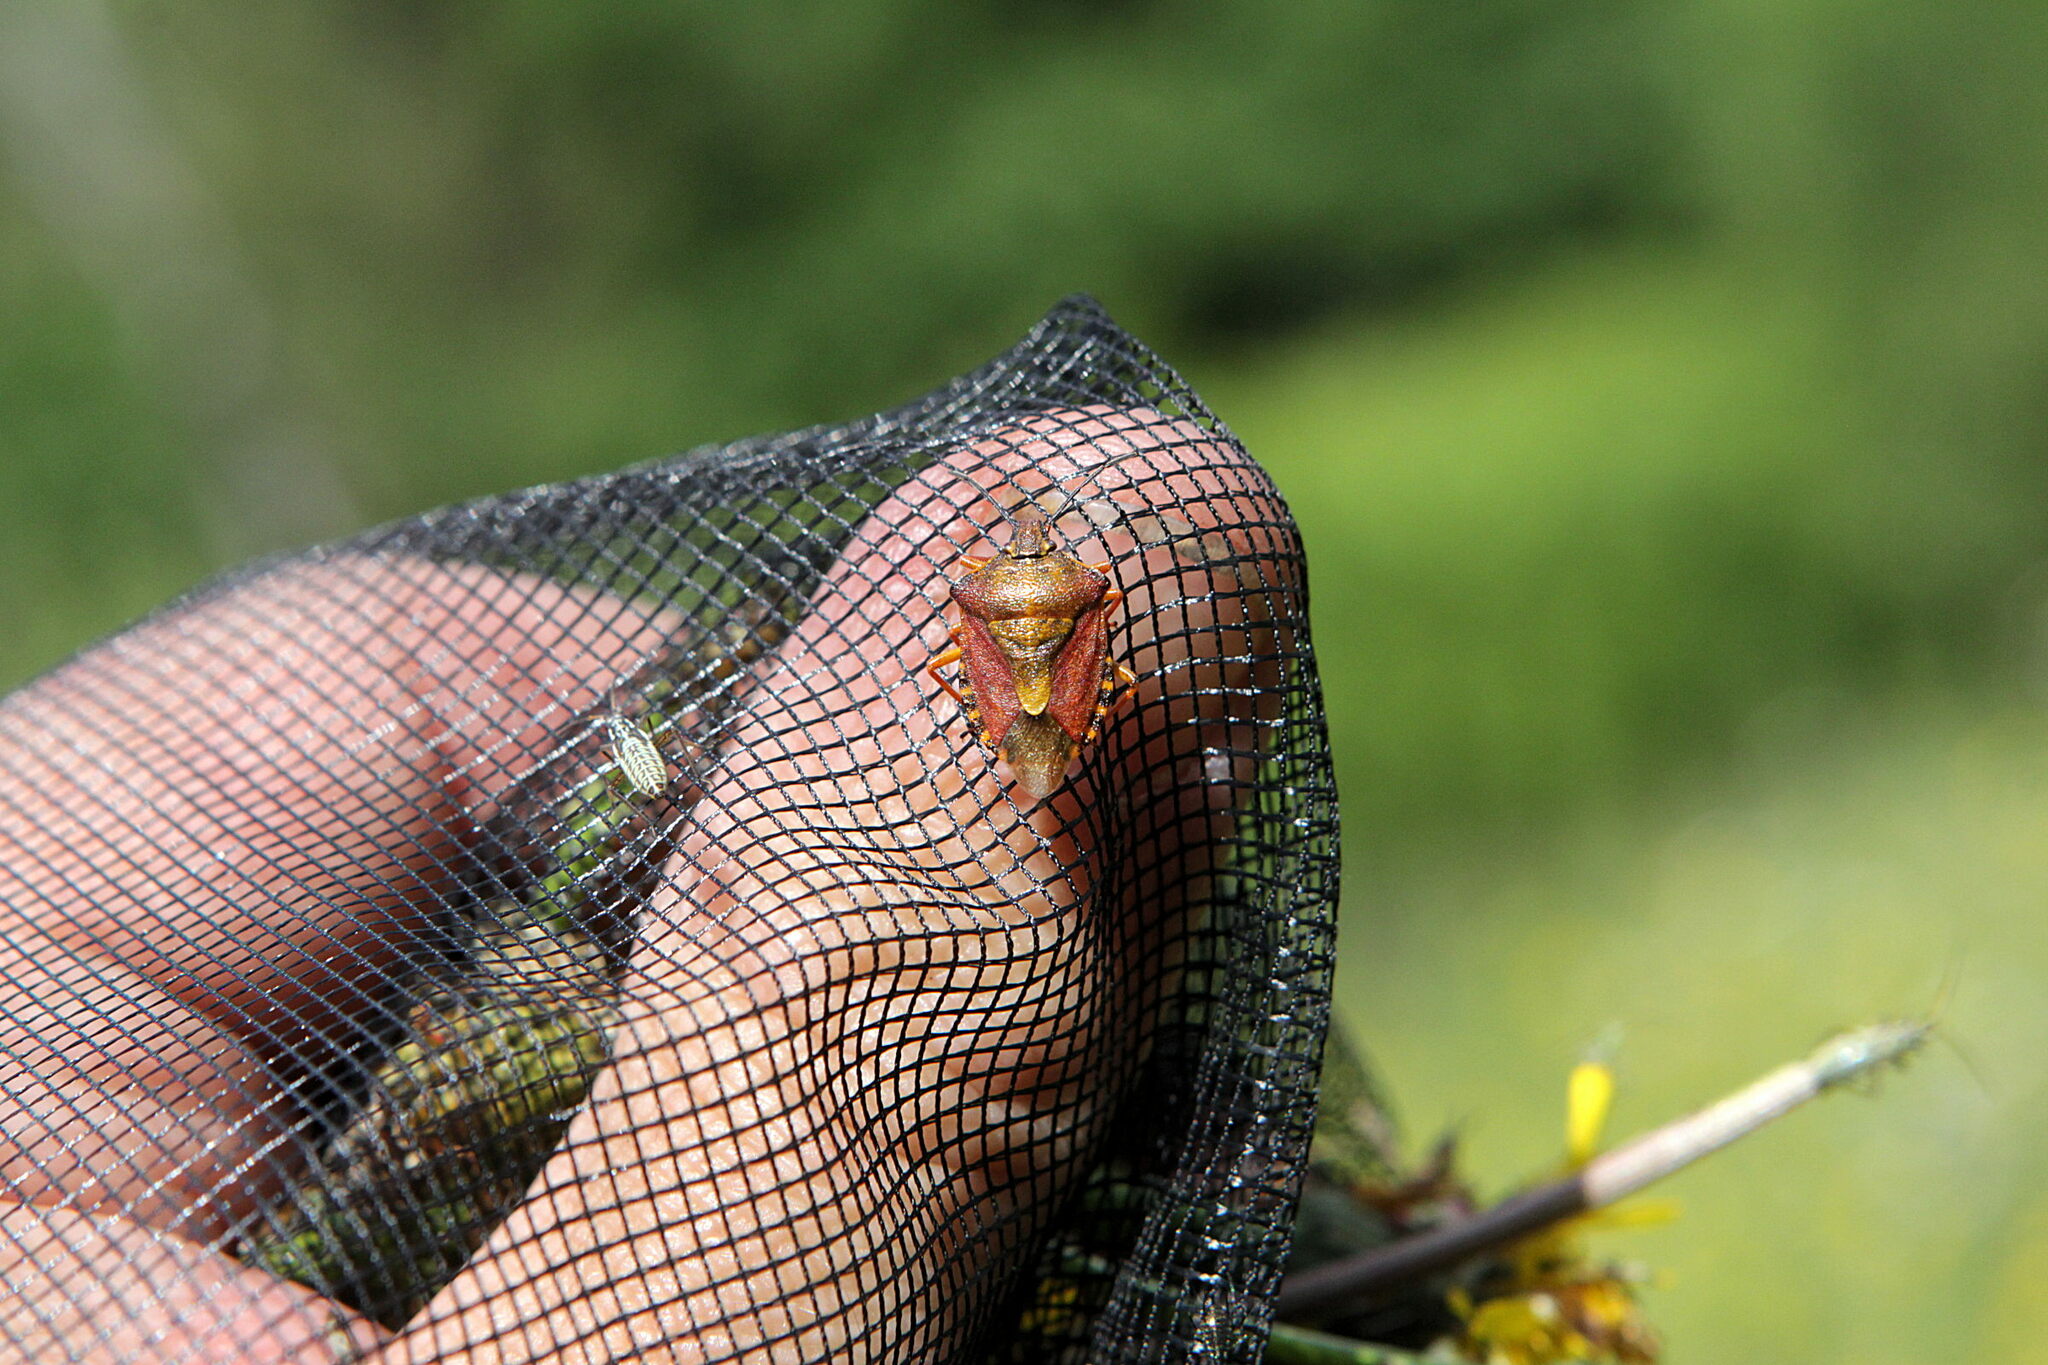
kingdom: Animalia
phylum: Arthropoda
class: Insecta
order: Hemiptera
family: Pentatomidae
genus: Carpocoris
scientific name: Carpocoris purpureipennis
